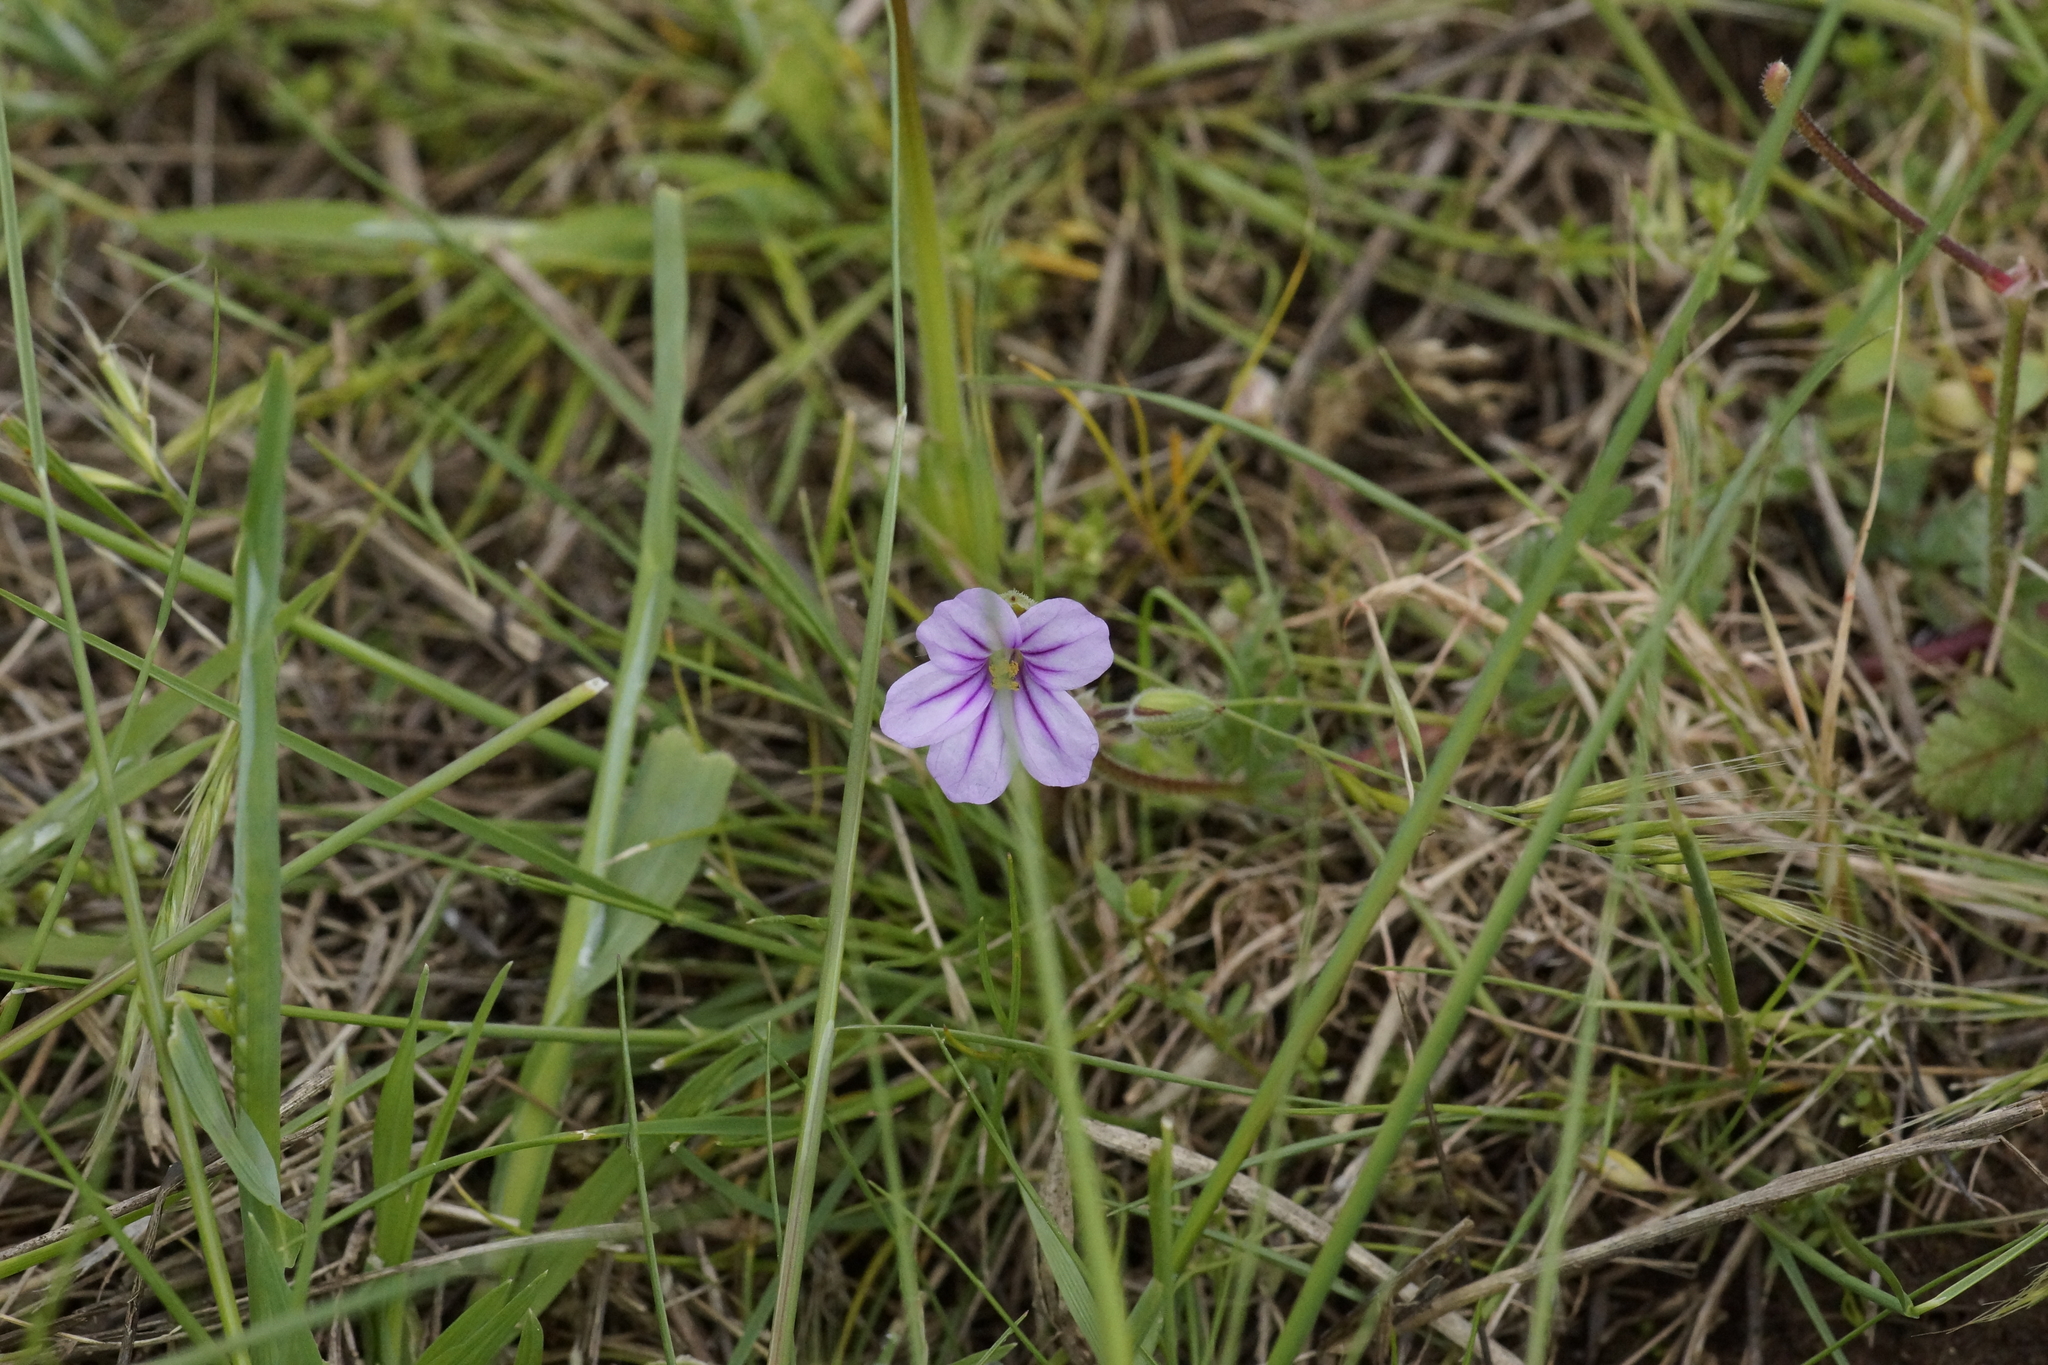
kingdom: Plantae
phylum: Tracheophyta
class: Magnoliopsida
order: Geraniales
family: Geraniaceae
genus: Erodium
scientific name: Erodium botrys
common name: Mediterranean stork's-bill
